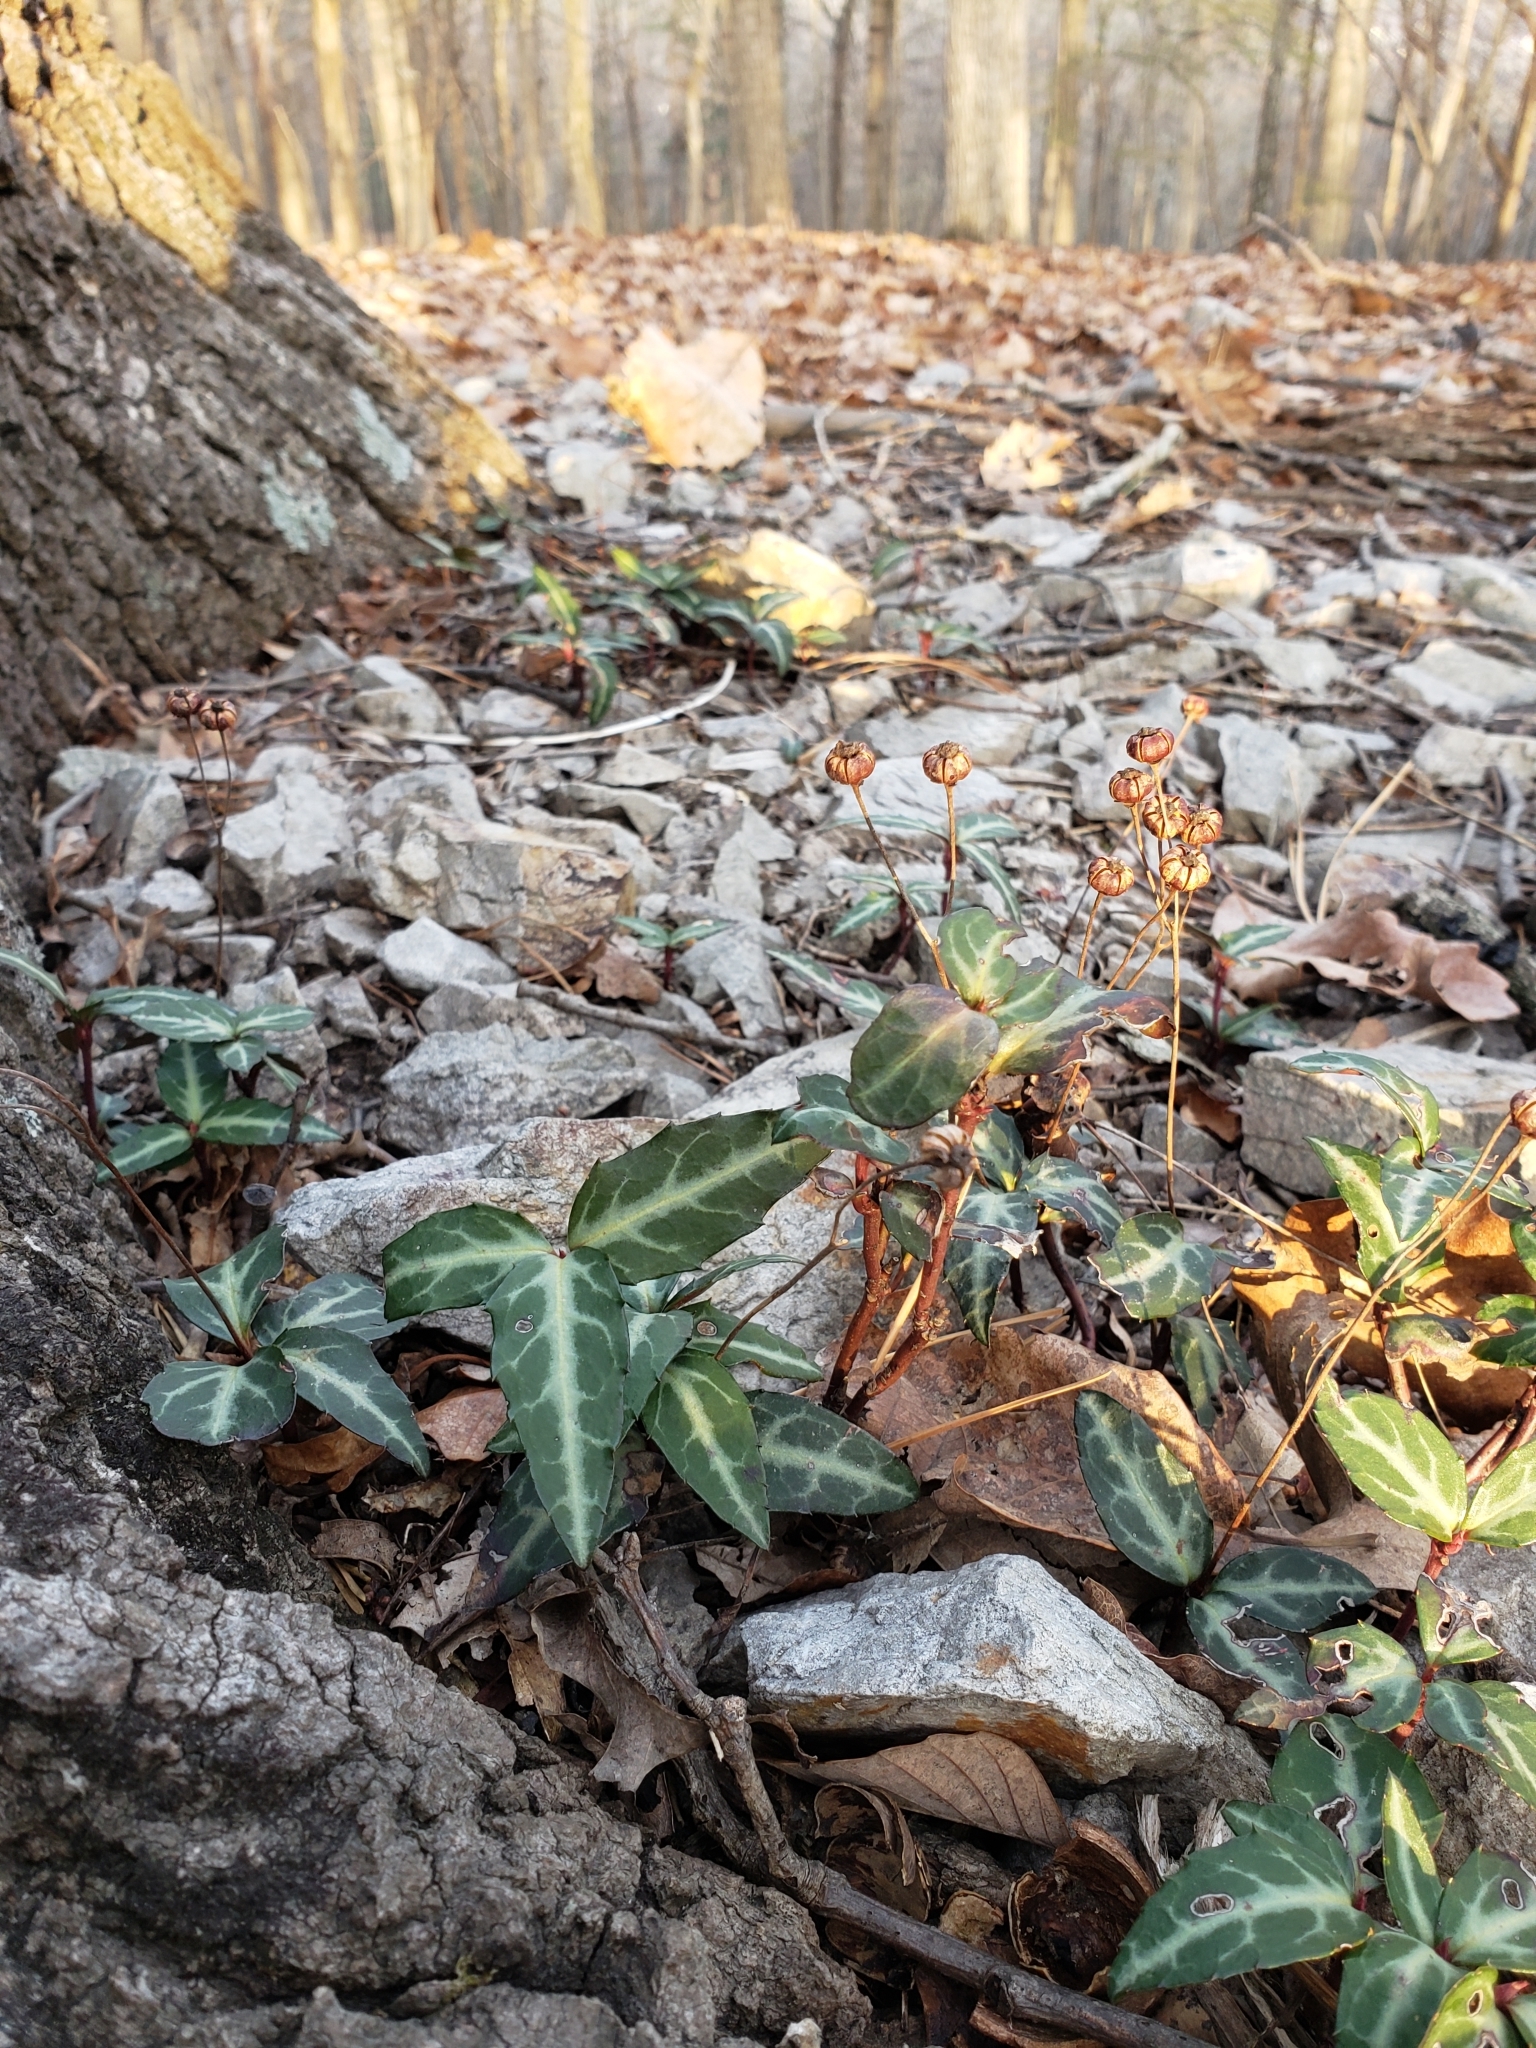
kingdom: Plantae
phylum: Tracheophyta
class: Magnoliopsida
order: Ericales
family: Ericaceae
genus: Chimaphila
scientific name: Chimaphila maculata
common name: Spotted pipsissewa
